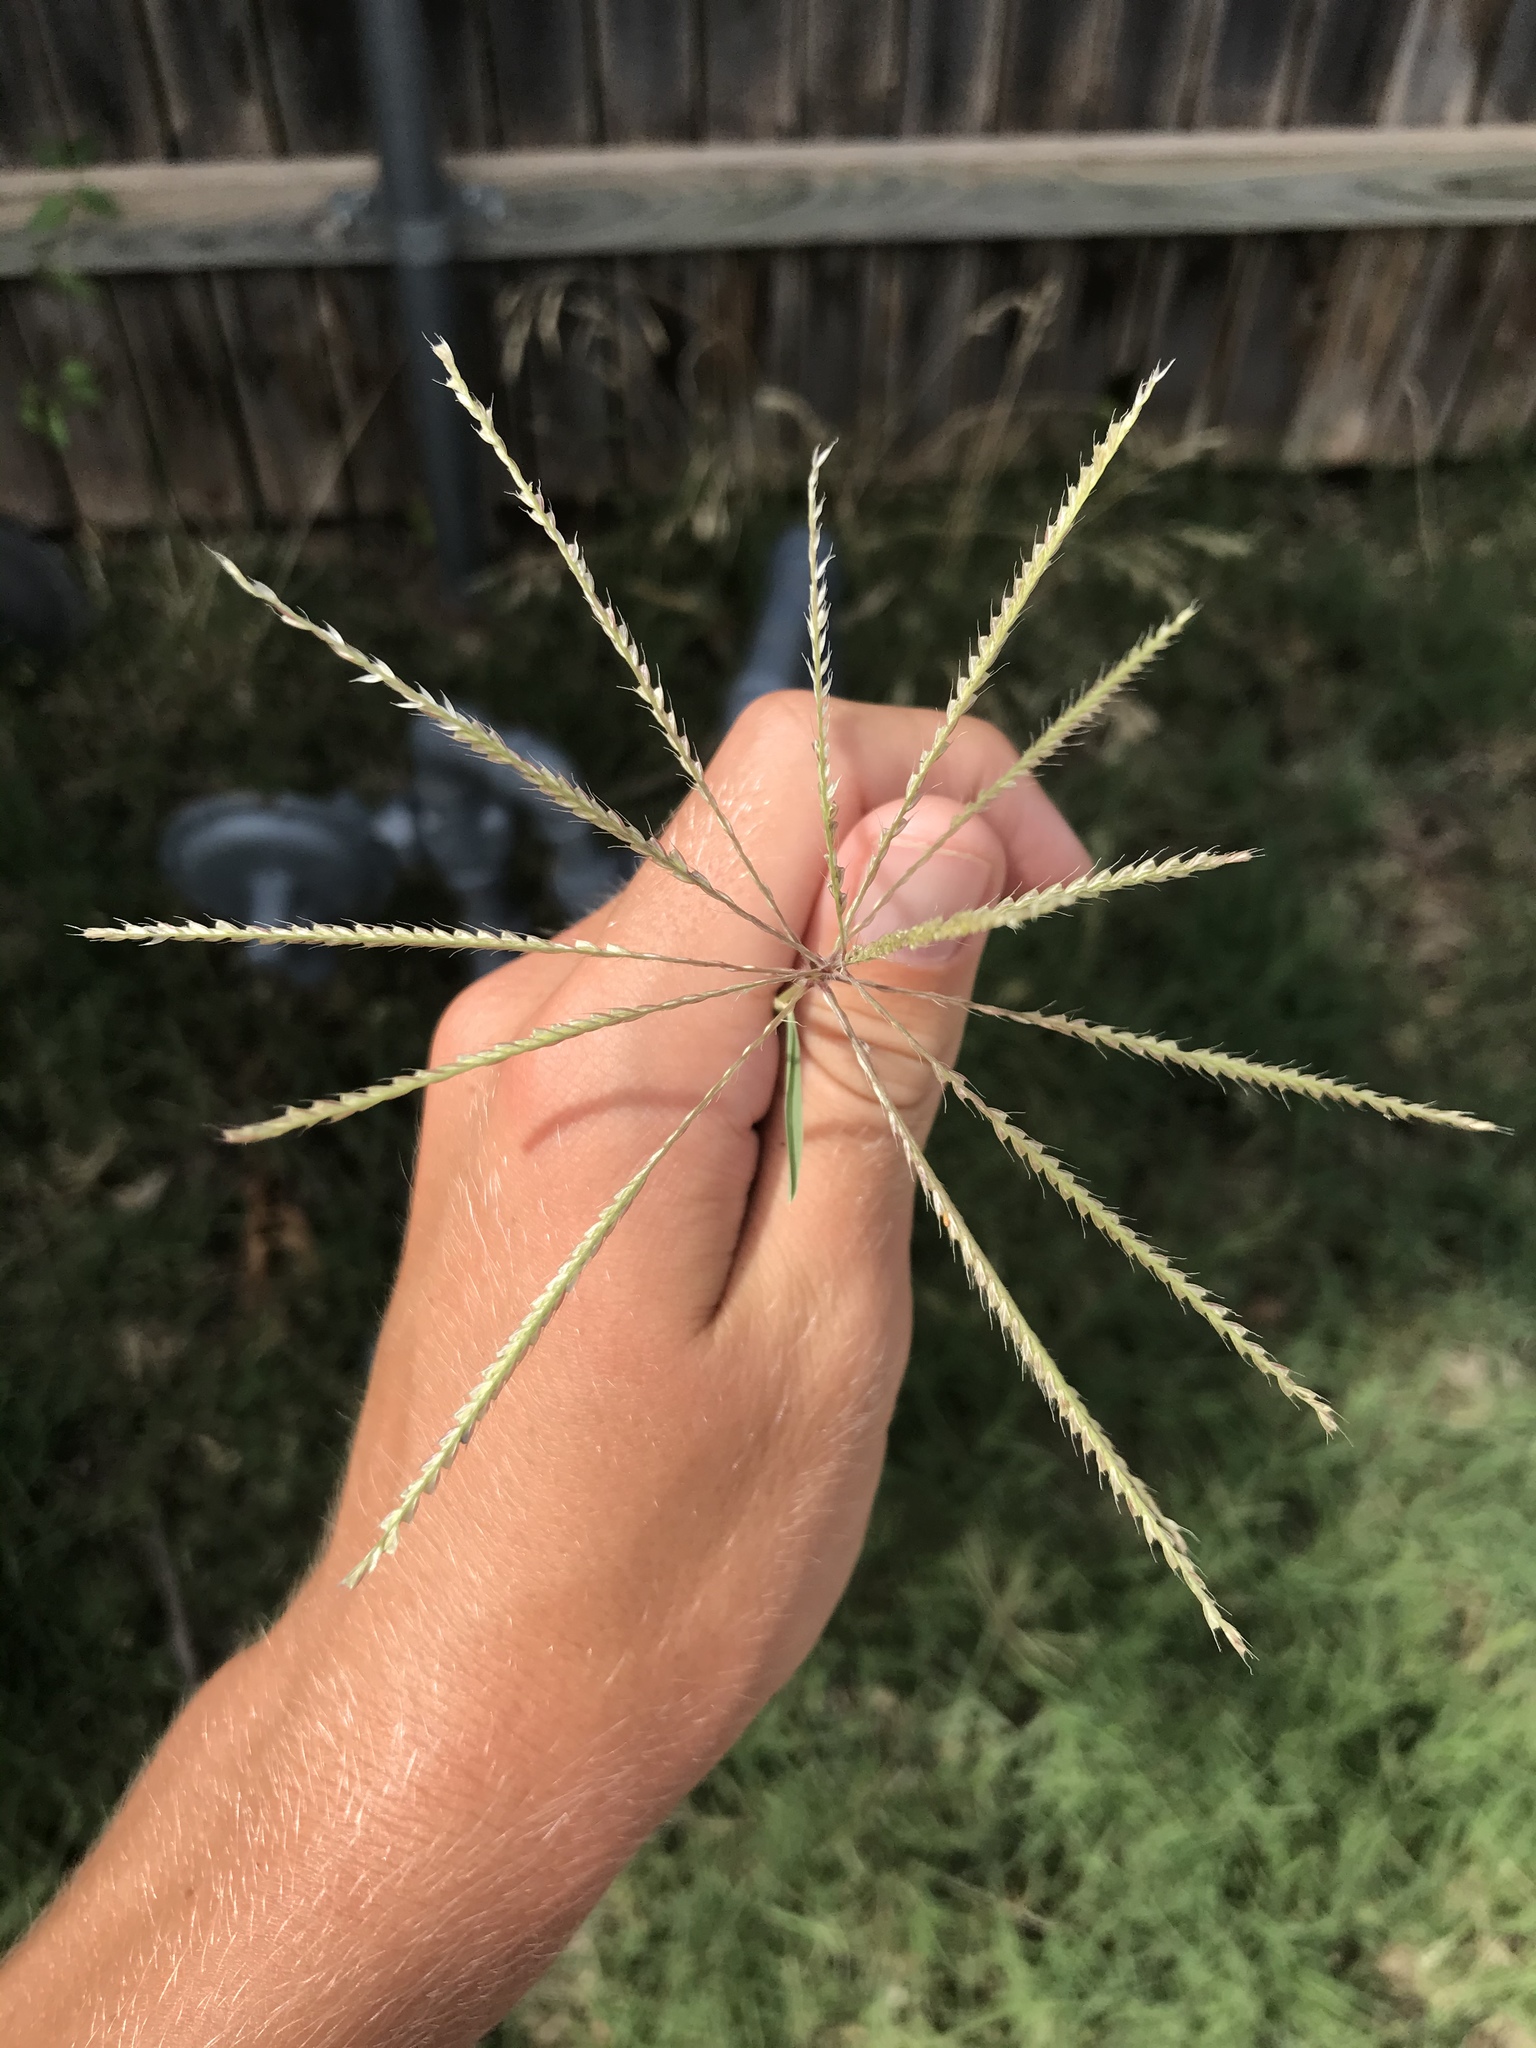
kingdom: Plantae
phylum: Tracheophyta
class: Liliopsida
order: Poales
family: Poaceae
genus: Chloris
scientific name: Chloris verticillata
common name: Tumble windmill grass
